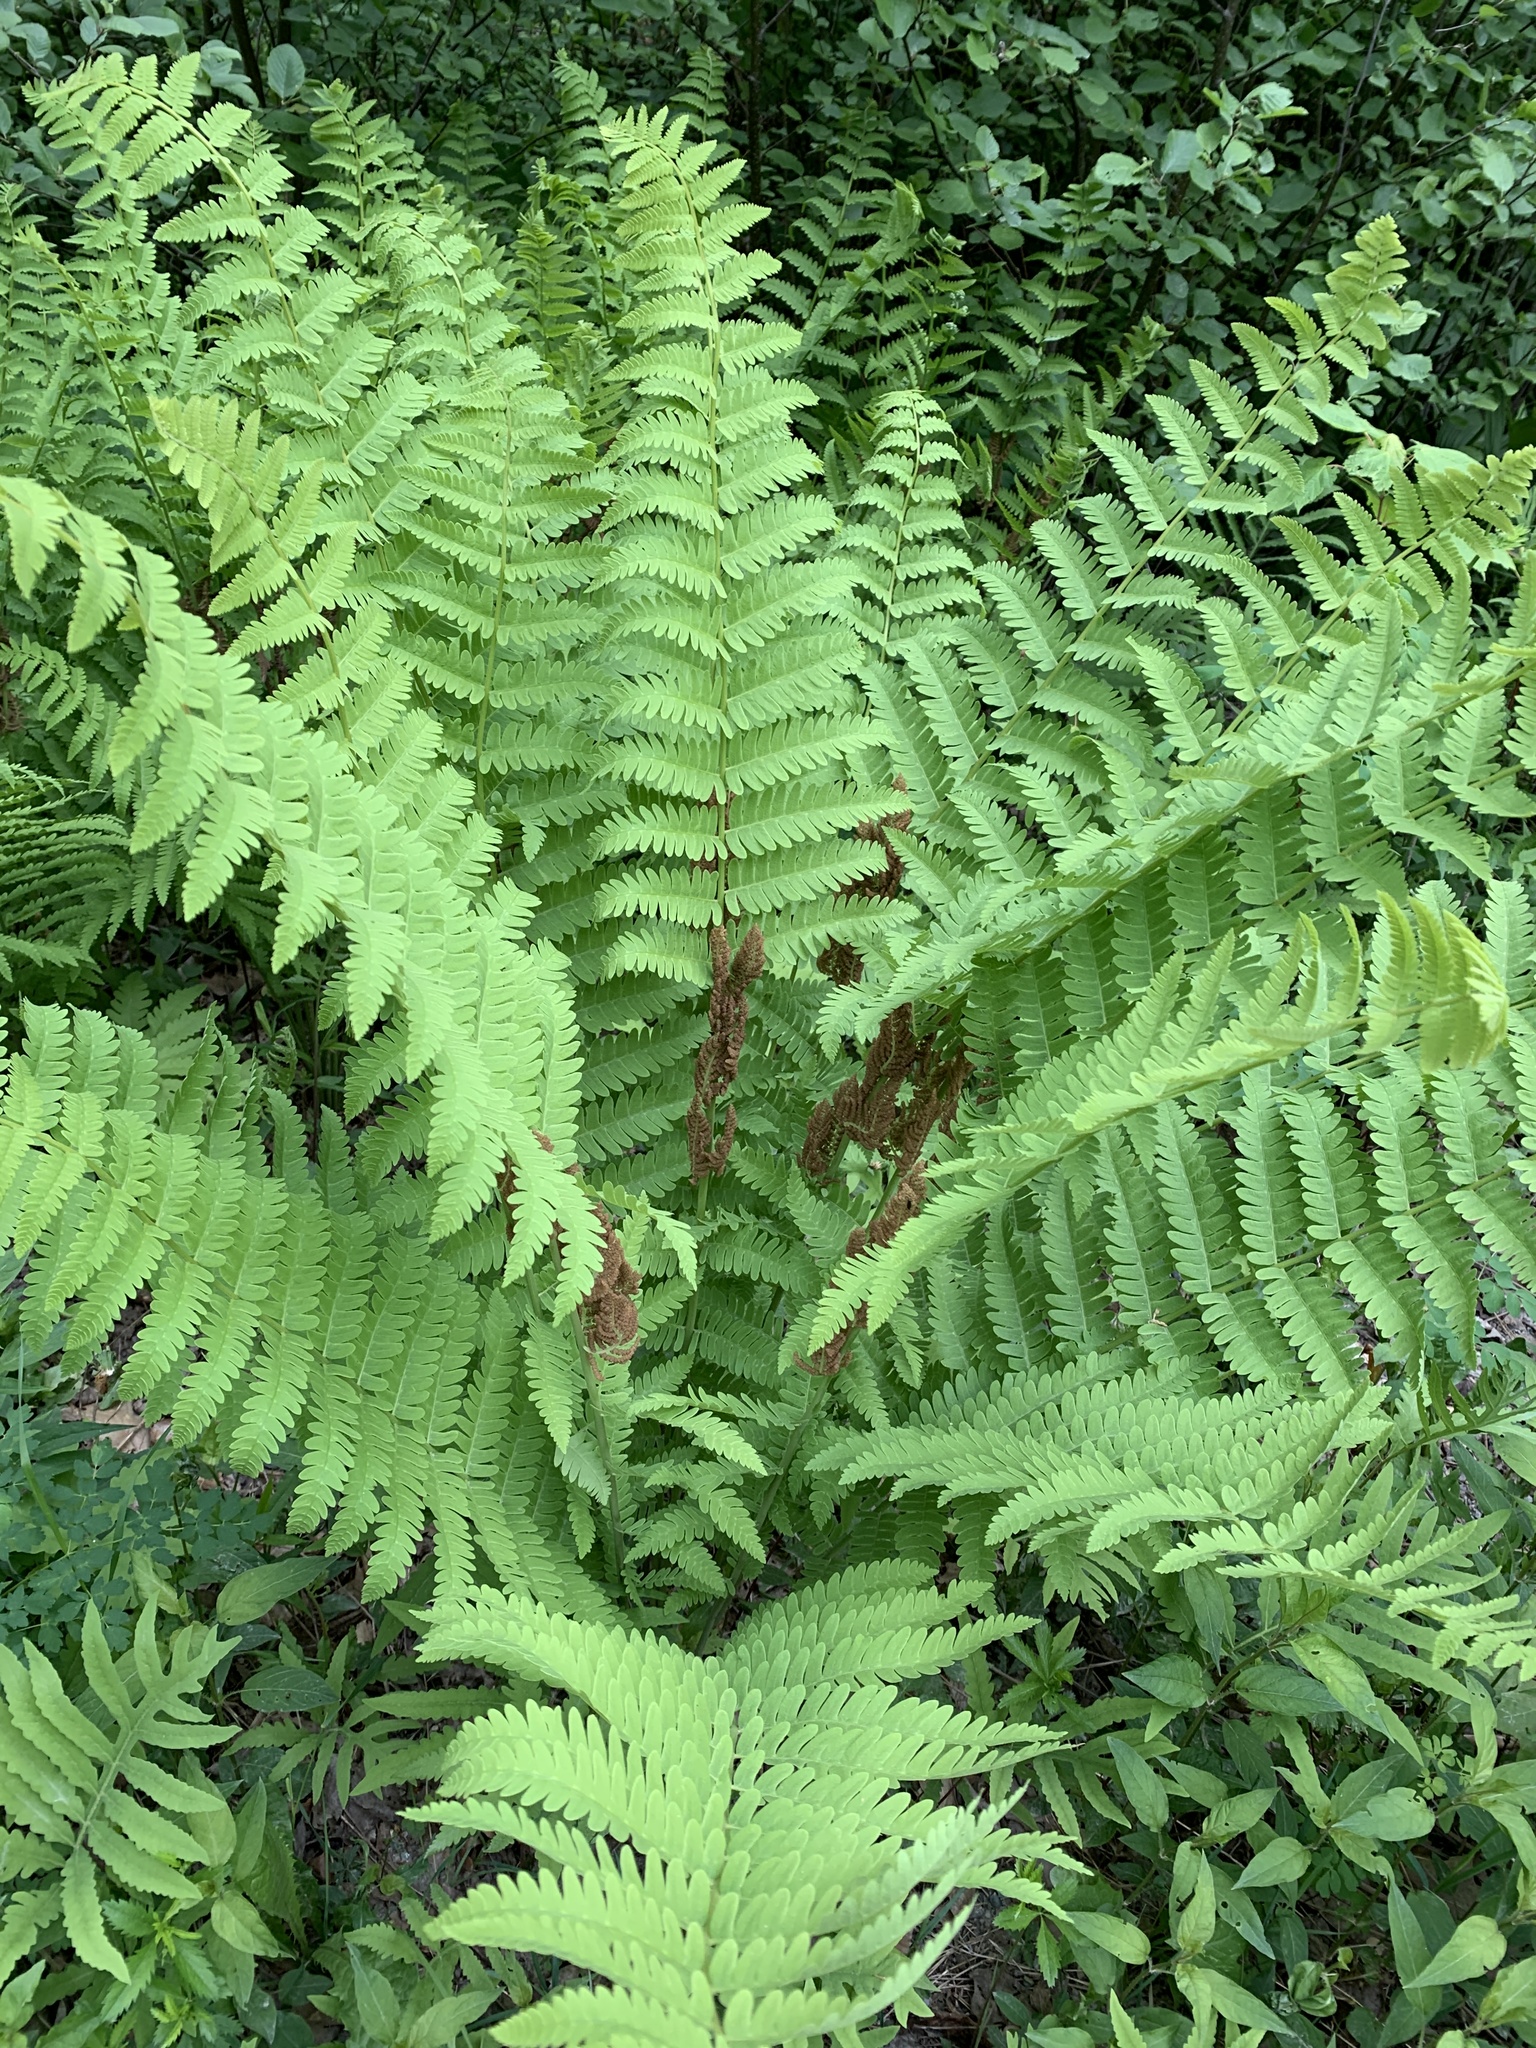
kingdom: Plantae
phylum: Tracheophyta
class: Polypodiopsida
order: Osmundales
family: Osmundaceae
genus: Claytosmunda
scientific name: Claytosmunda claytoniana
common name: Clayton's fern
